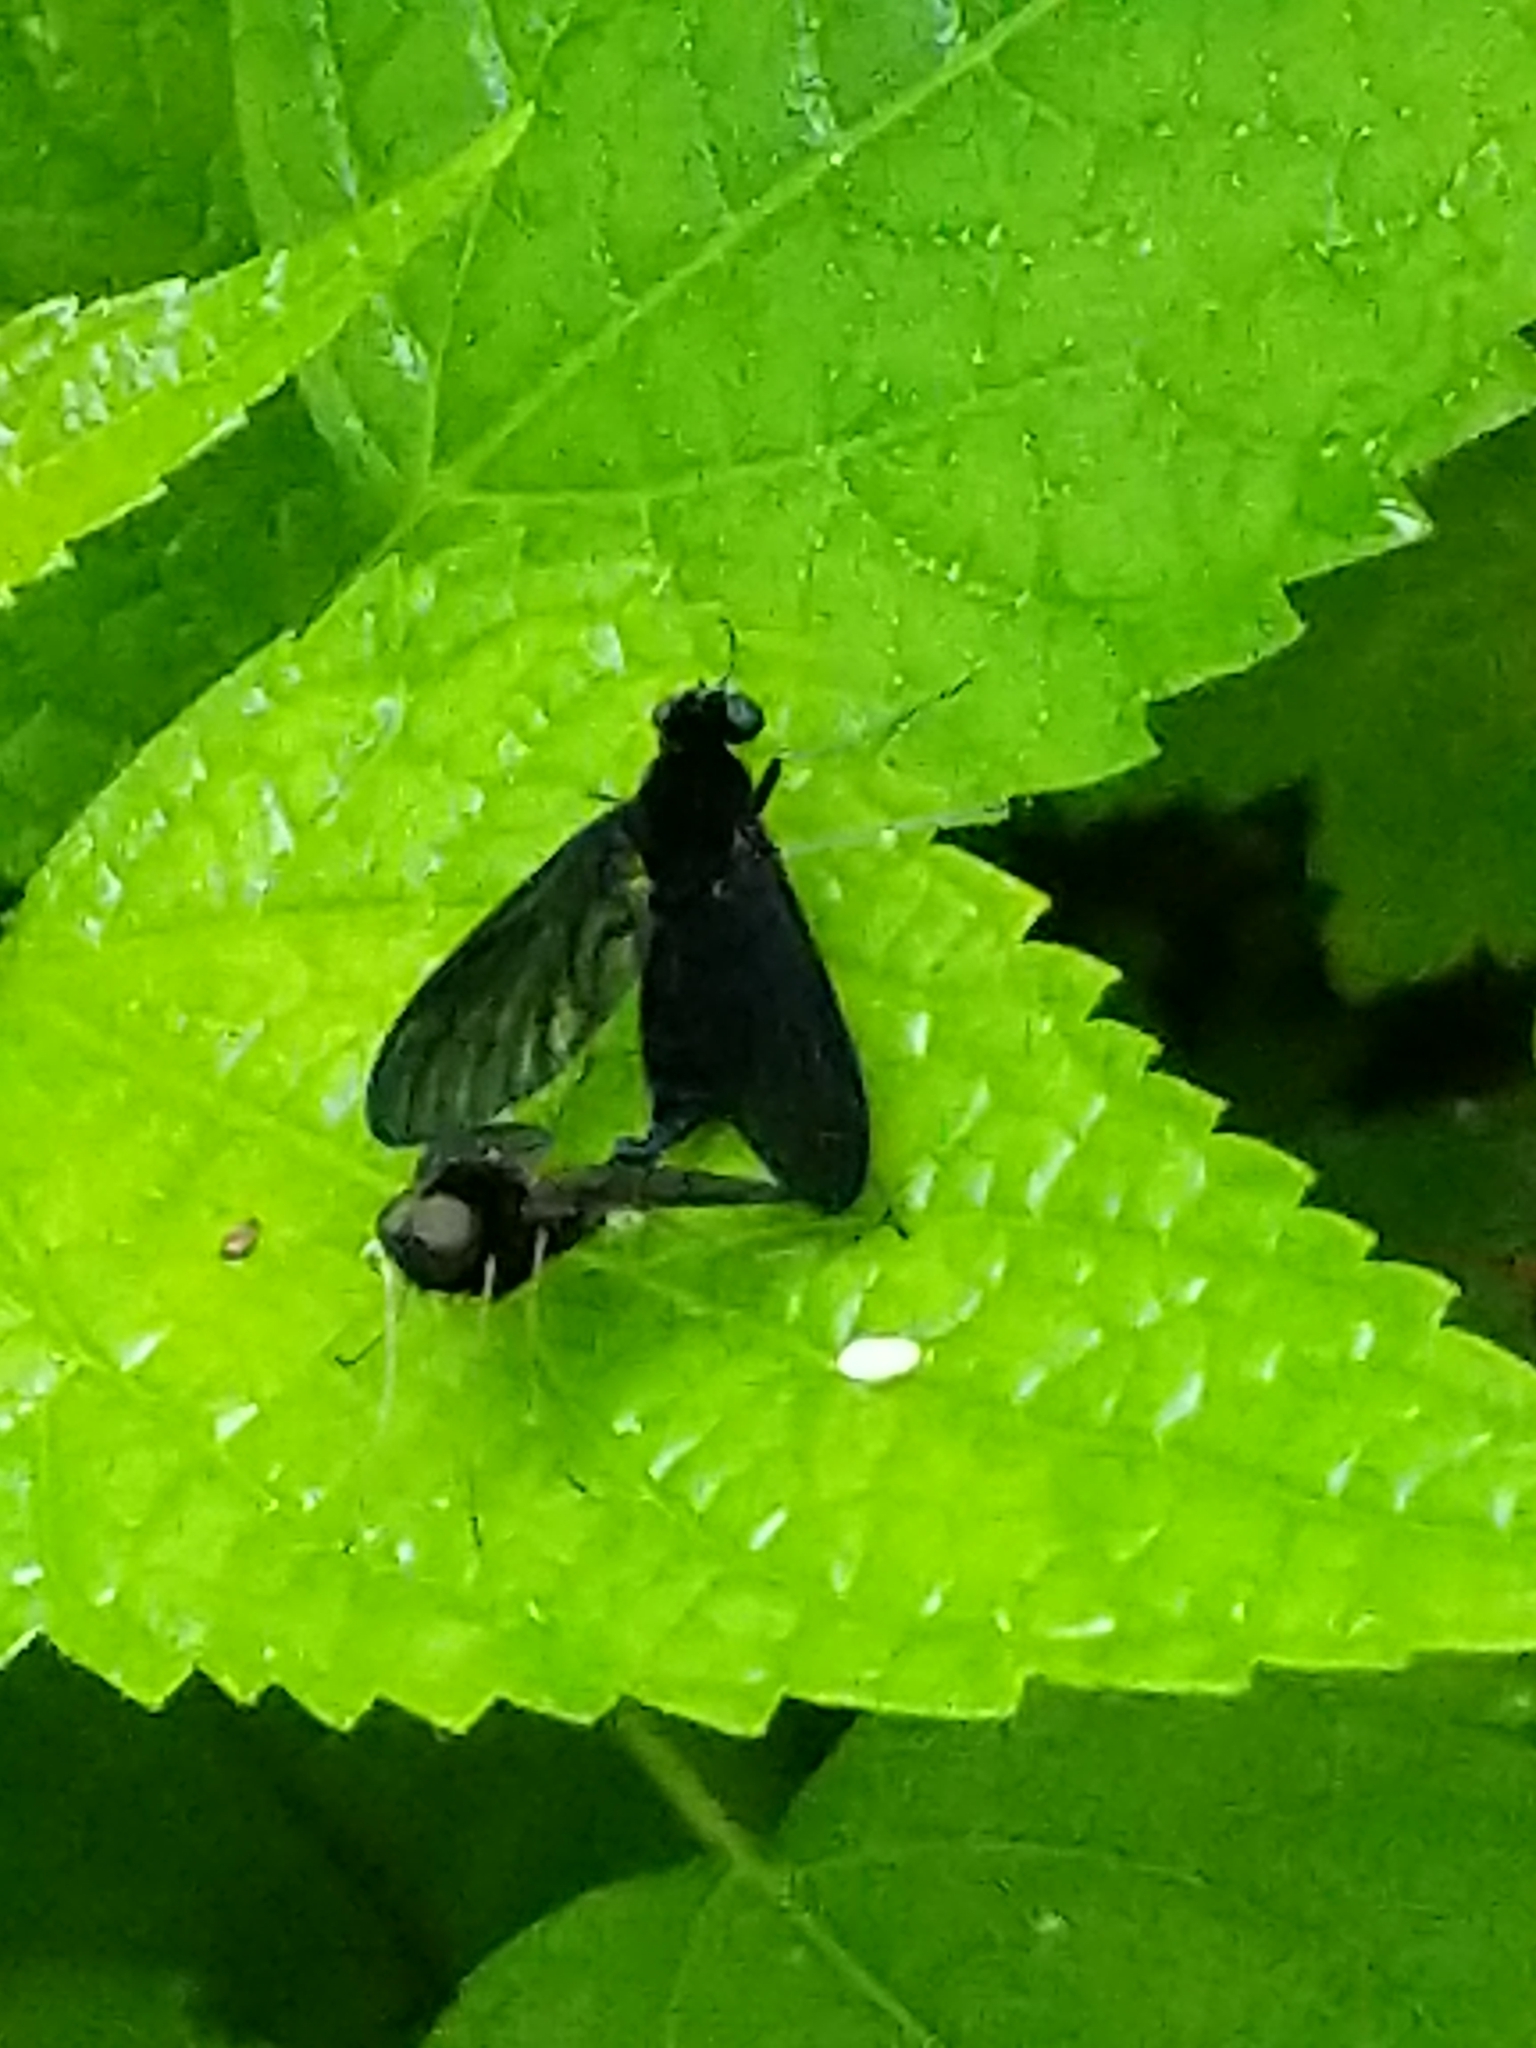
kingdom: Animalia
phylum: Arthropoda
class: Insecta
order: Diptera
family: Rhagionidae
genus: Chrysopilus
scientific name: Chrysopilus velutinus
